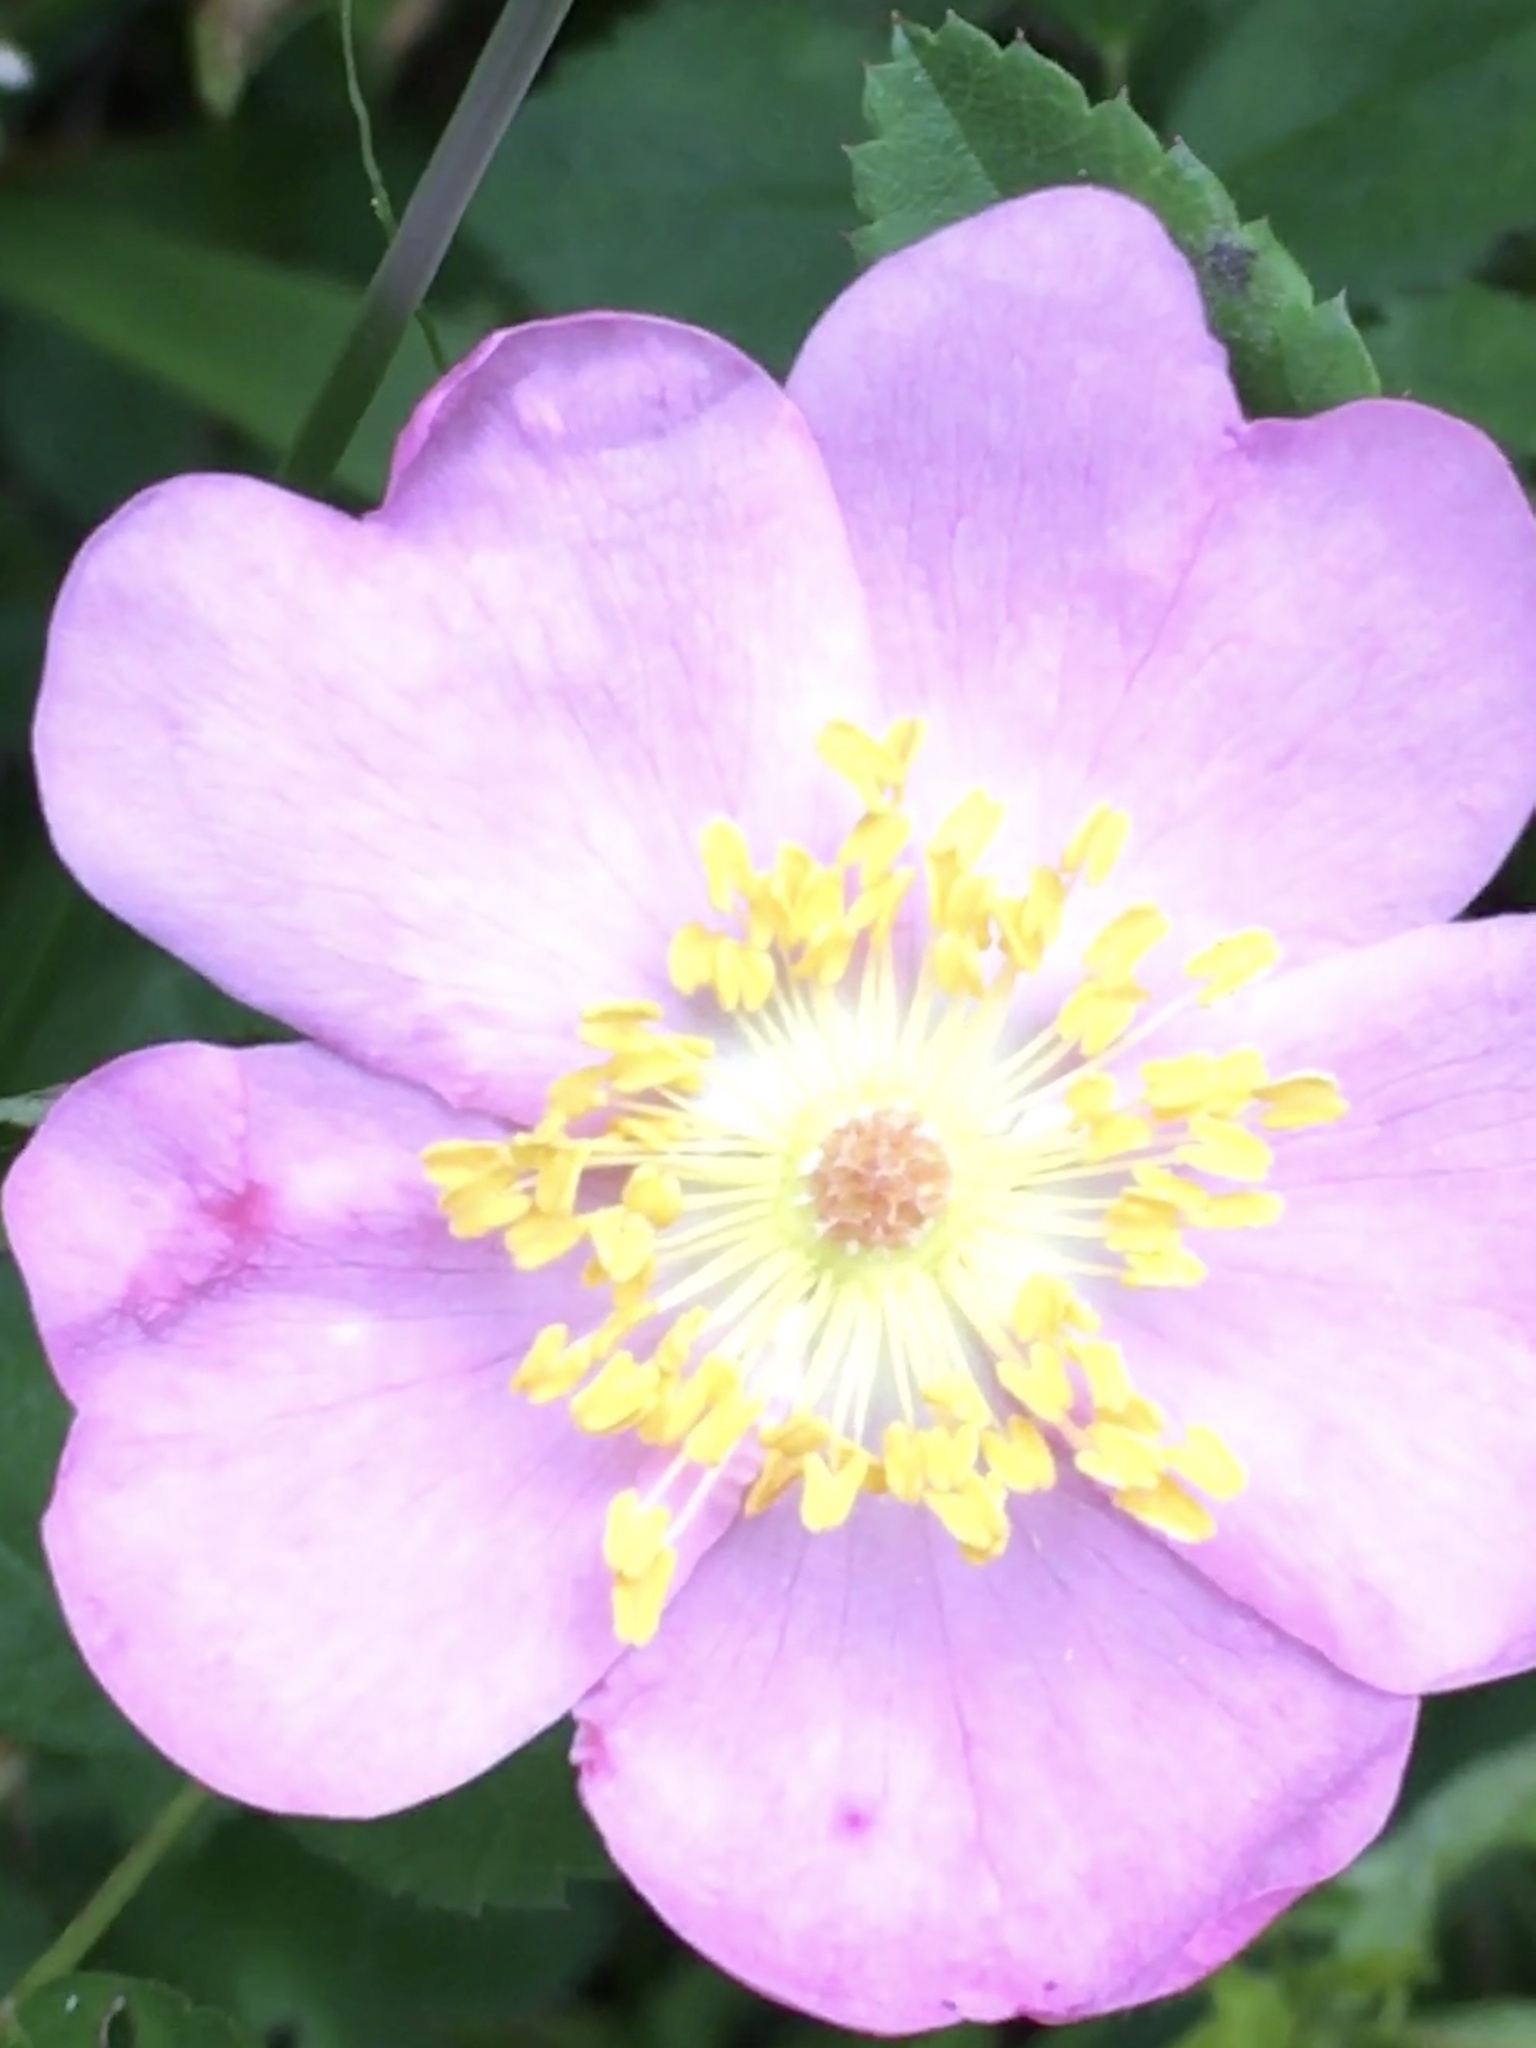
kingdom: Plantae
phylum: Tracheophyta
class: Magnoliopsida
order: Rosales
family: Rosaceae
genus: Rosa
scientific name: Rosa carolina
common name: Pasture rose
